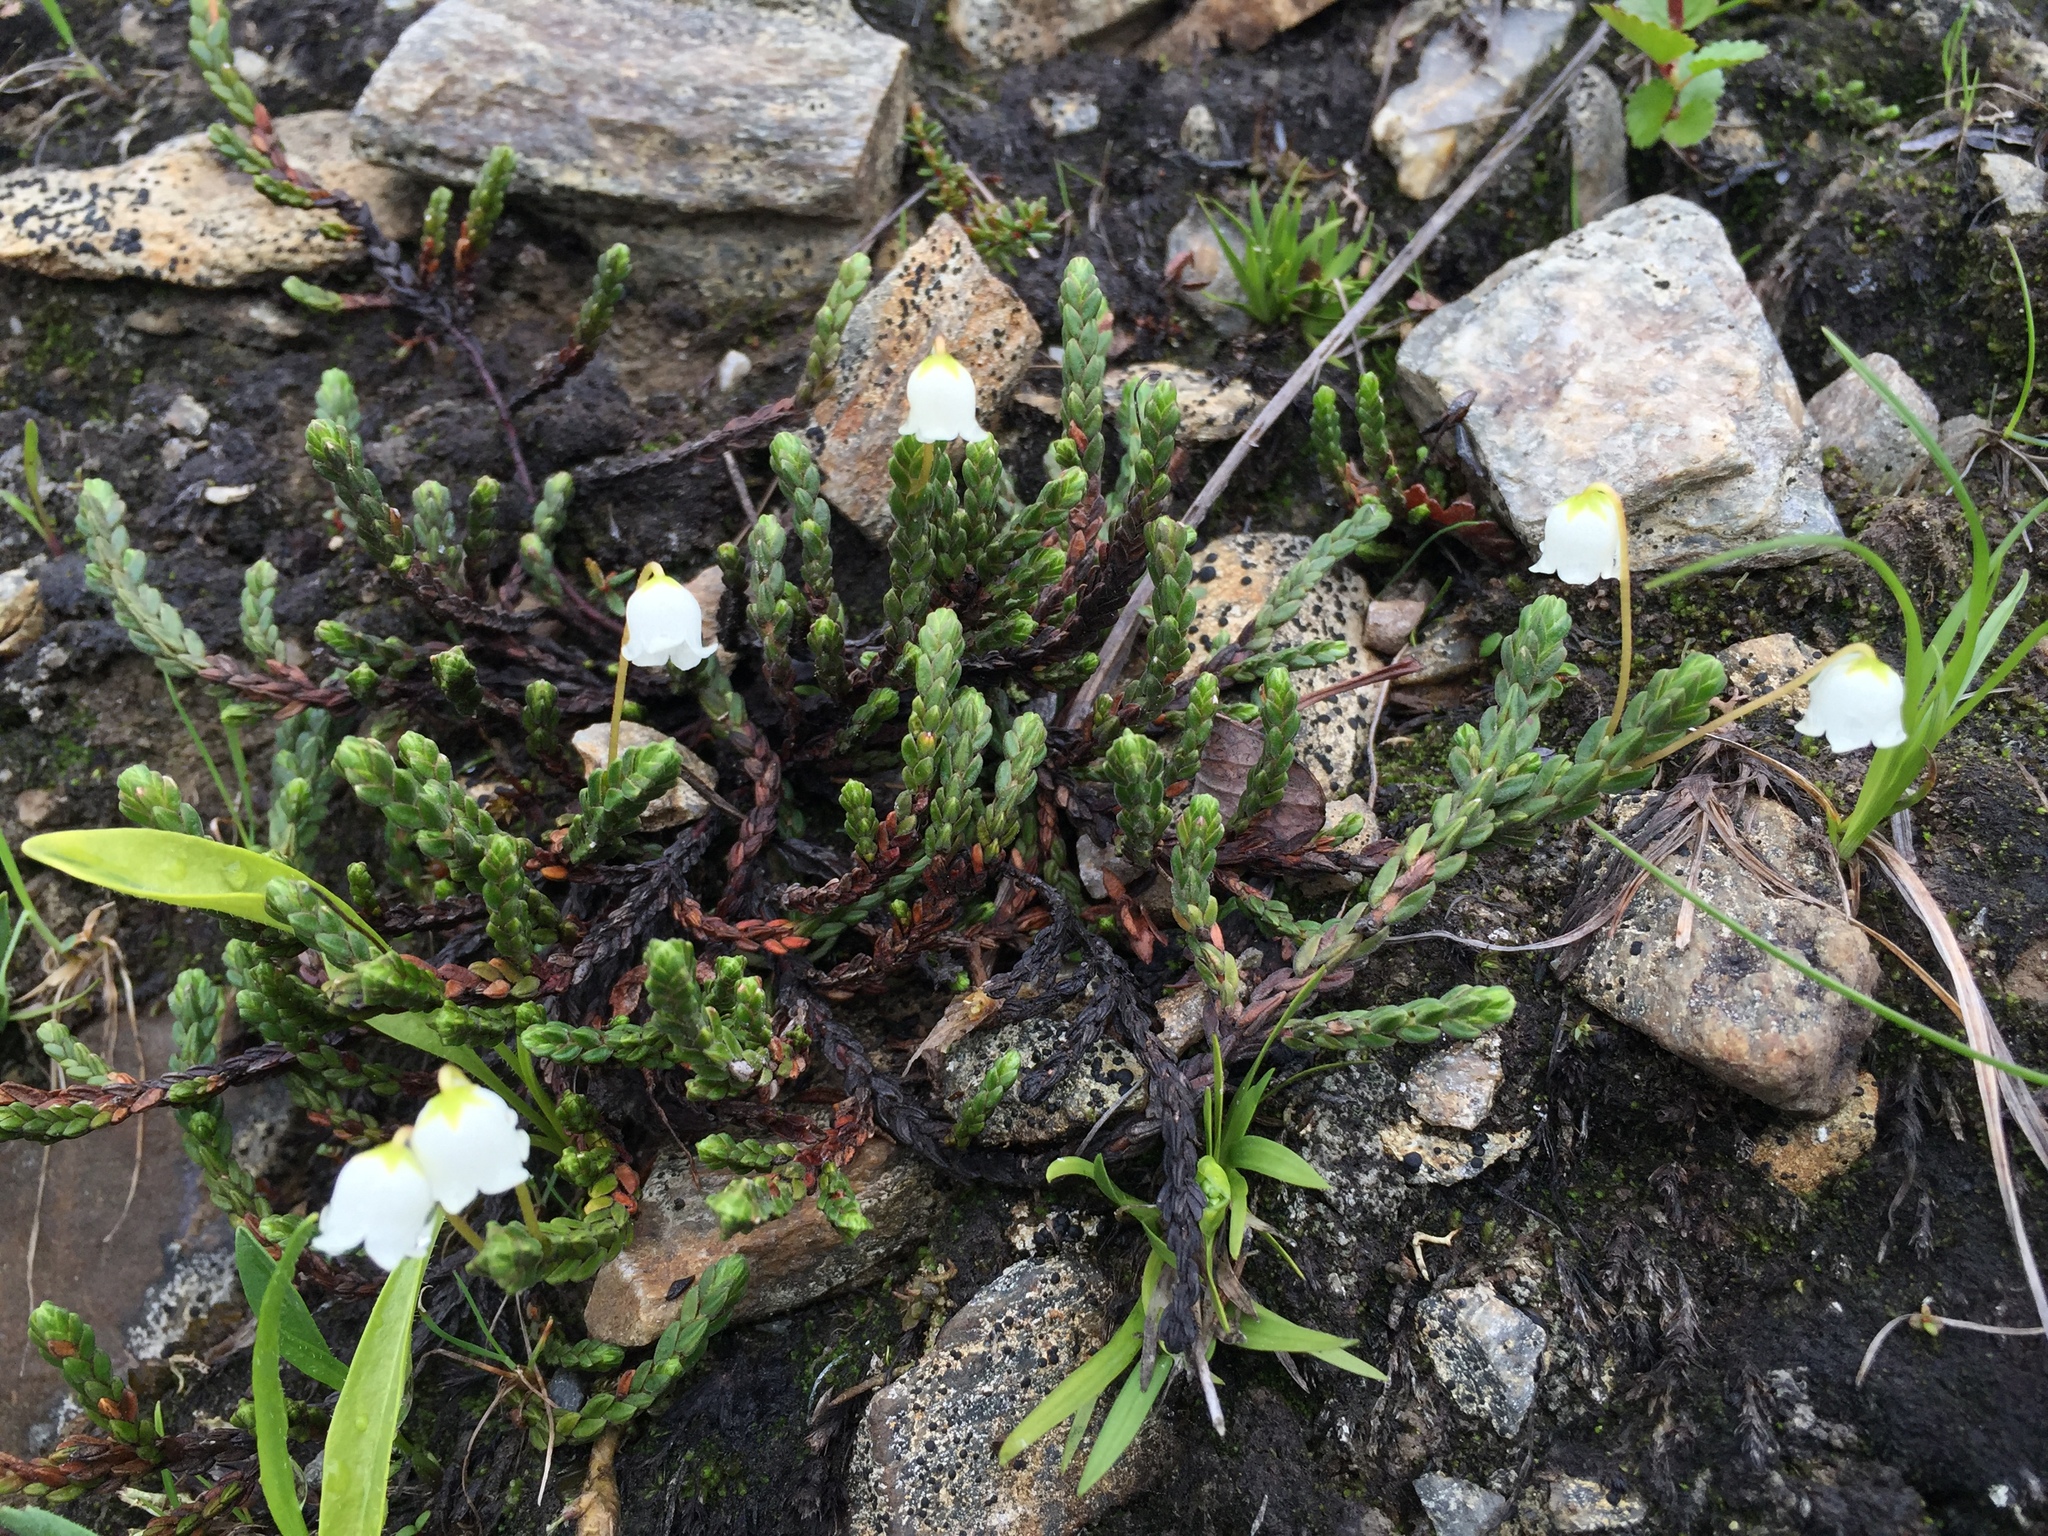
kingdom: Plantae
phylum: Tracheophyta
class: Magnoliopsida
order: Ericales
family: Ericaceae
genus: Cassiope
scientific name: Cassiope tetragona
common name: Arctic bell heather
